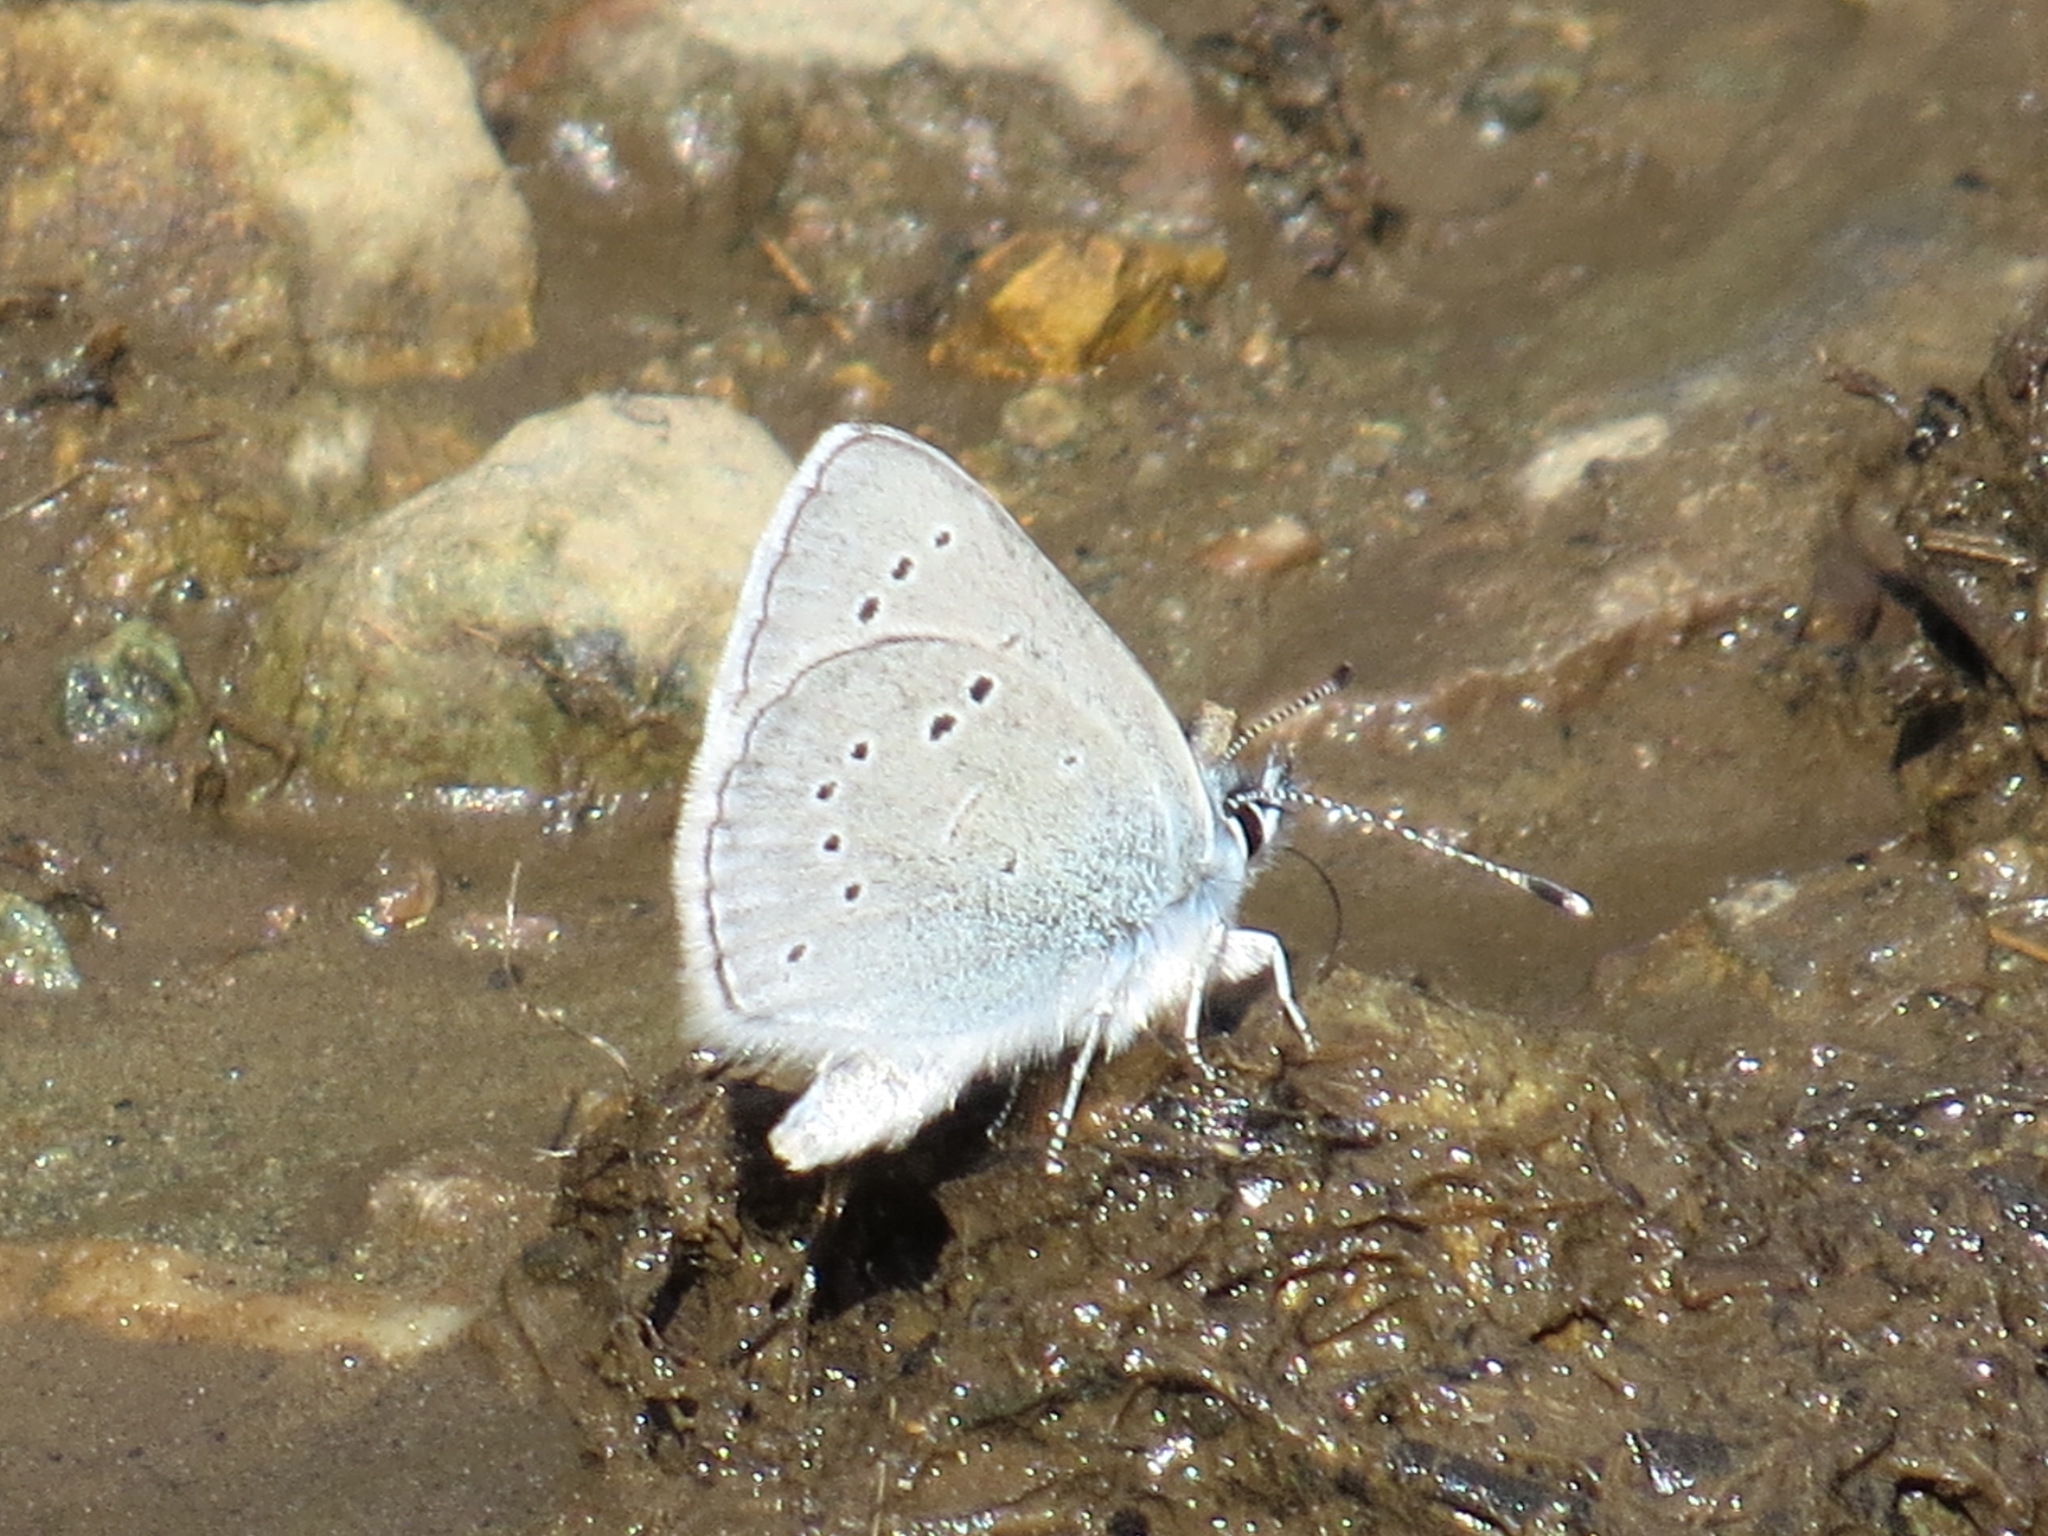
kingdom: Animalia
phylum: Arthropoda
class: Insecta
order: Lepidoptera
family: Lycaenidae
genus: Glaucopsyche
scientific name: Glaucopsyche lygdamus
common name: Silvery blue
